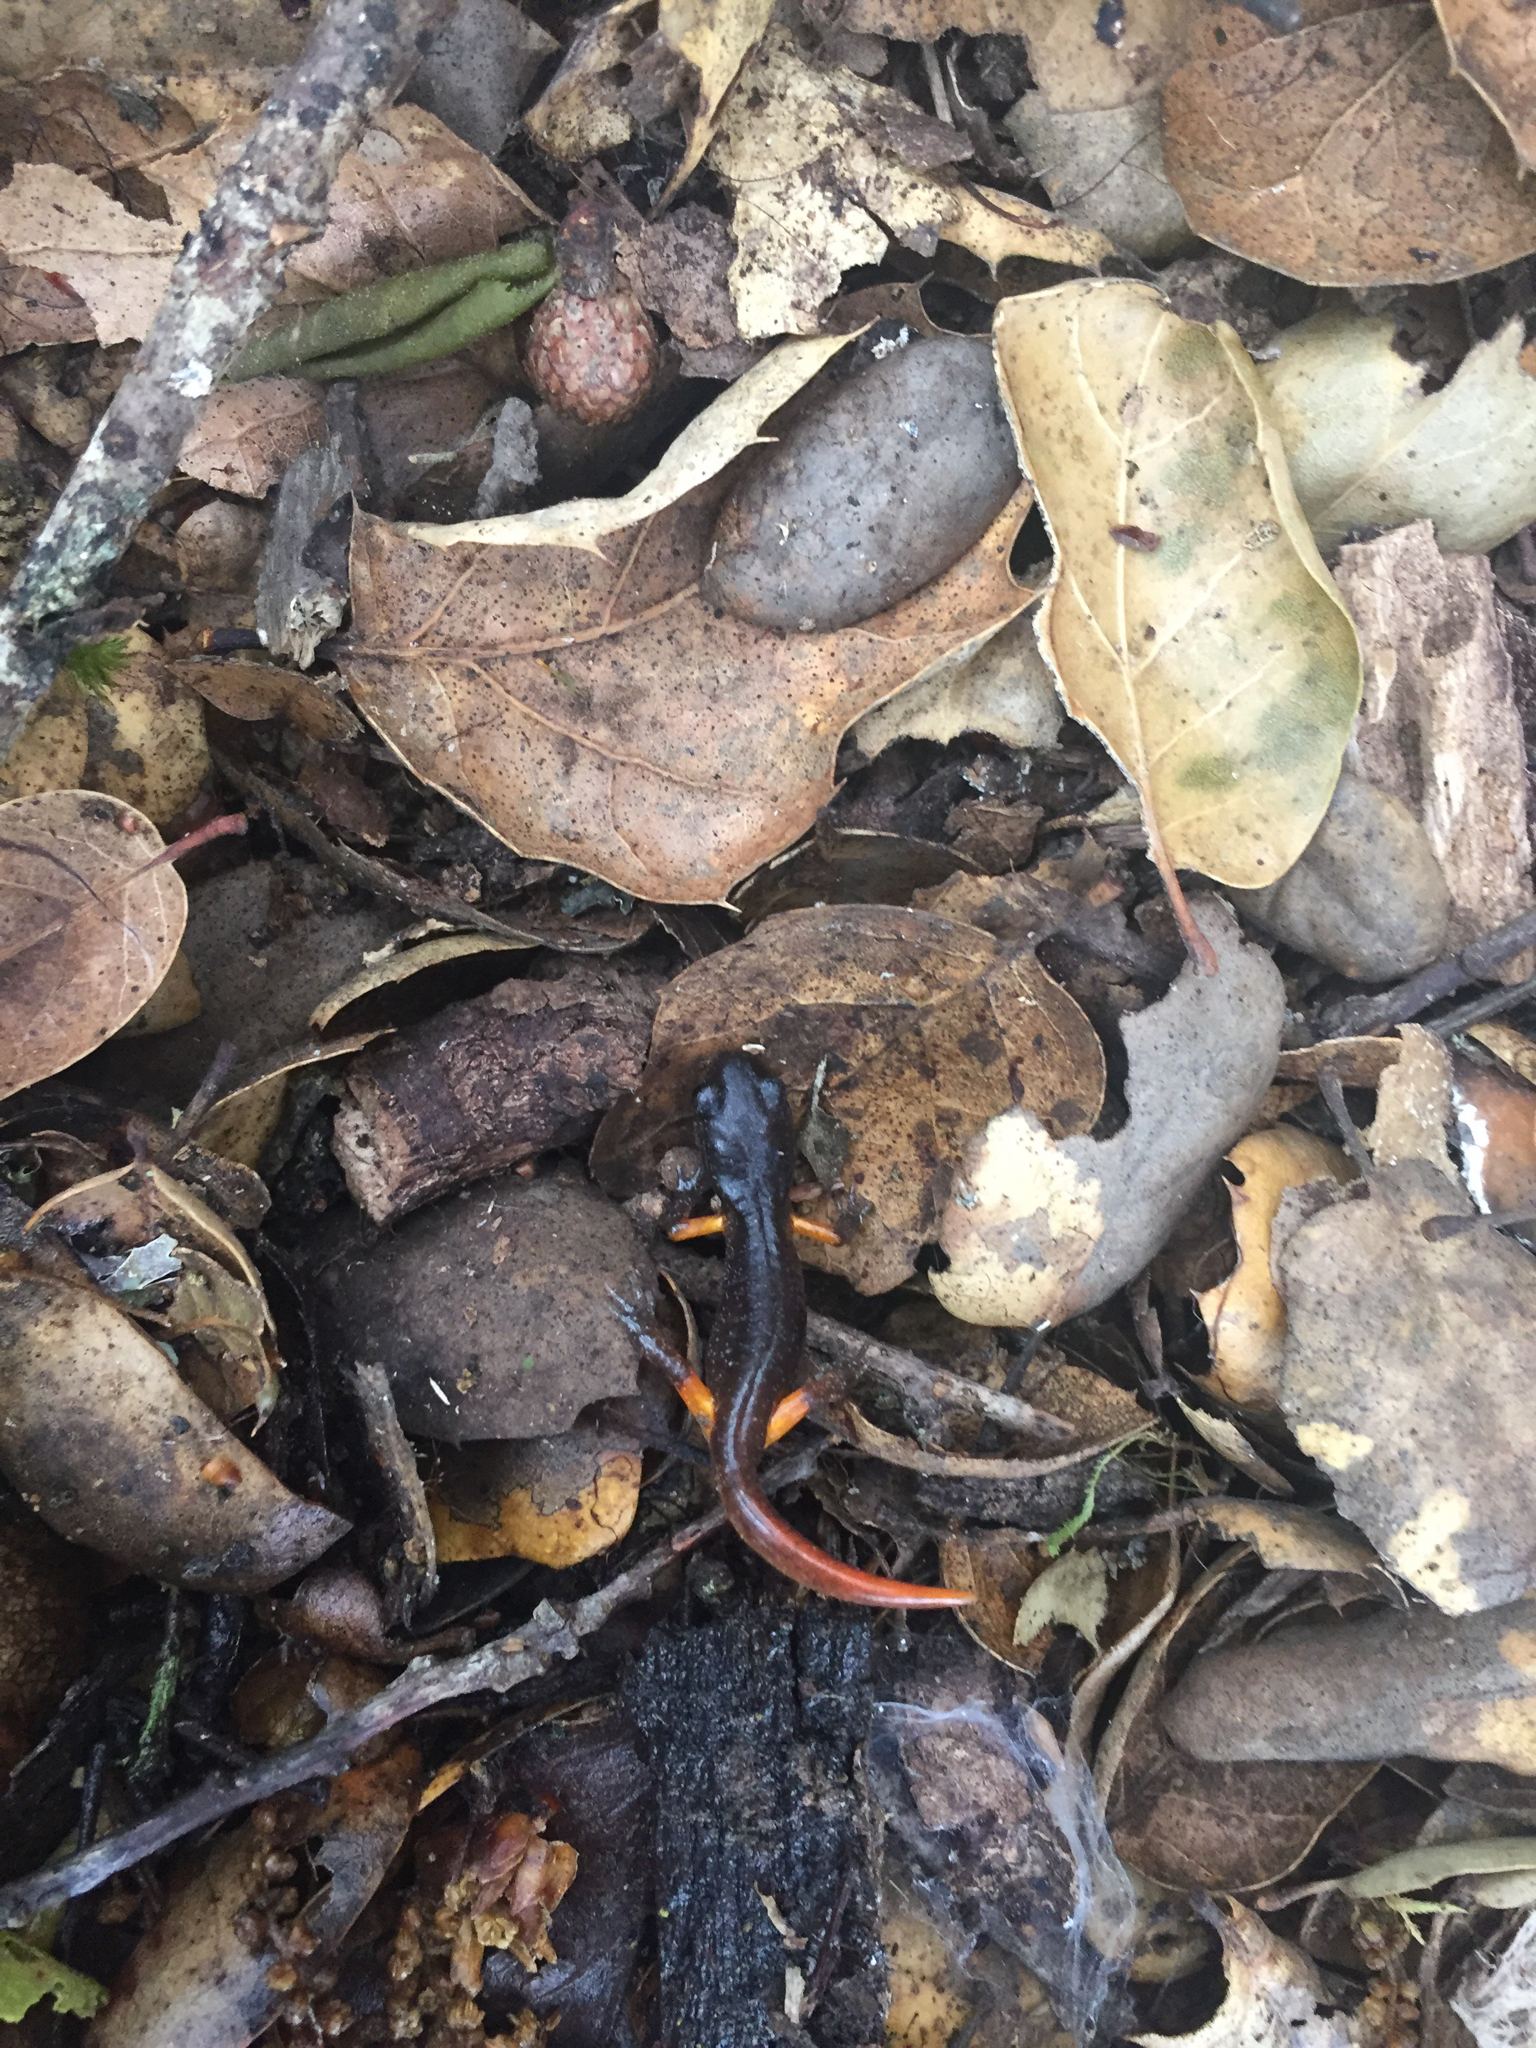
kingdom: Animalia
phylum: Chordata
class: Amphibia
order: Caudata
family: Plethodontidae
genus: Ensatina
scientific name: Ensatina eschscholtzii
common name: Ensatina
